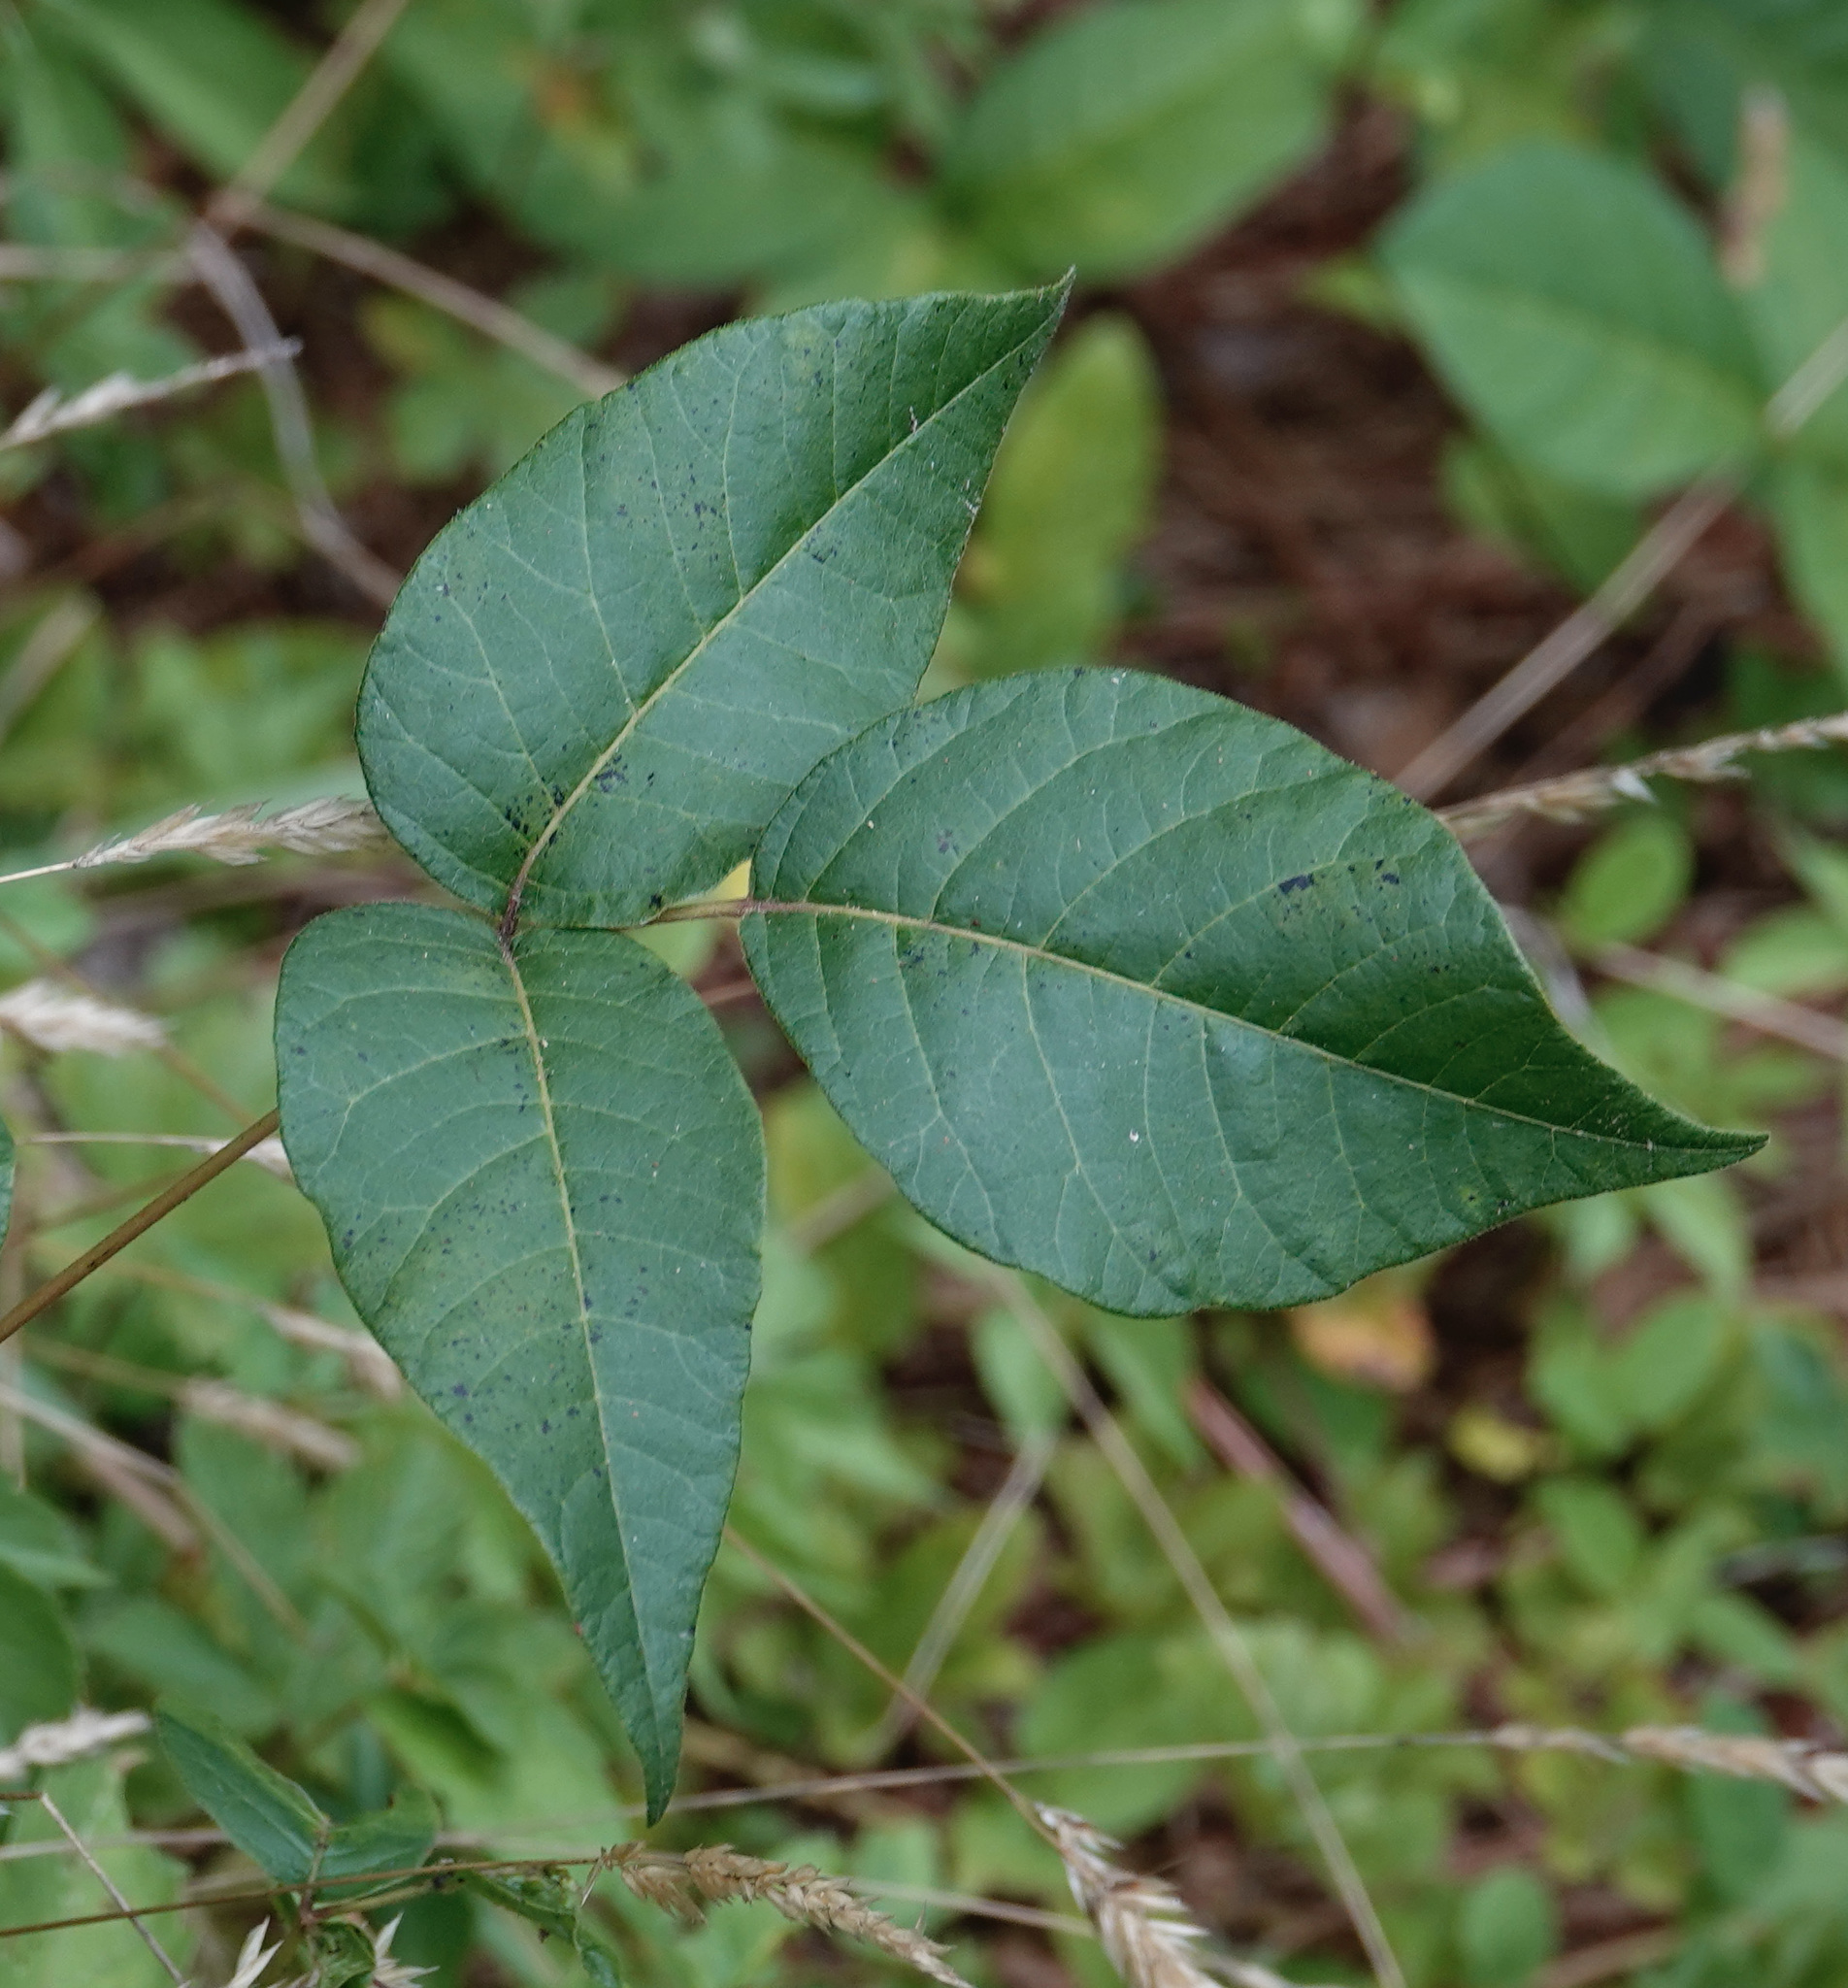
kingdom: Plantae
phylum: Tracheophyta
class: Magnoliopsida
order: Sapindales
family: Anacardiaceae
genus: Toxicodendron
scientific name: Toxicodendron radicans
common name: Poison ivy
